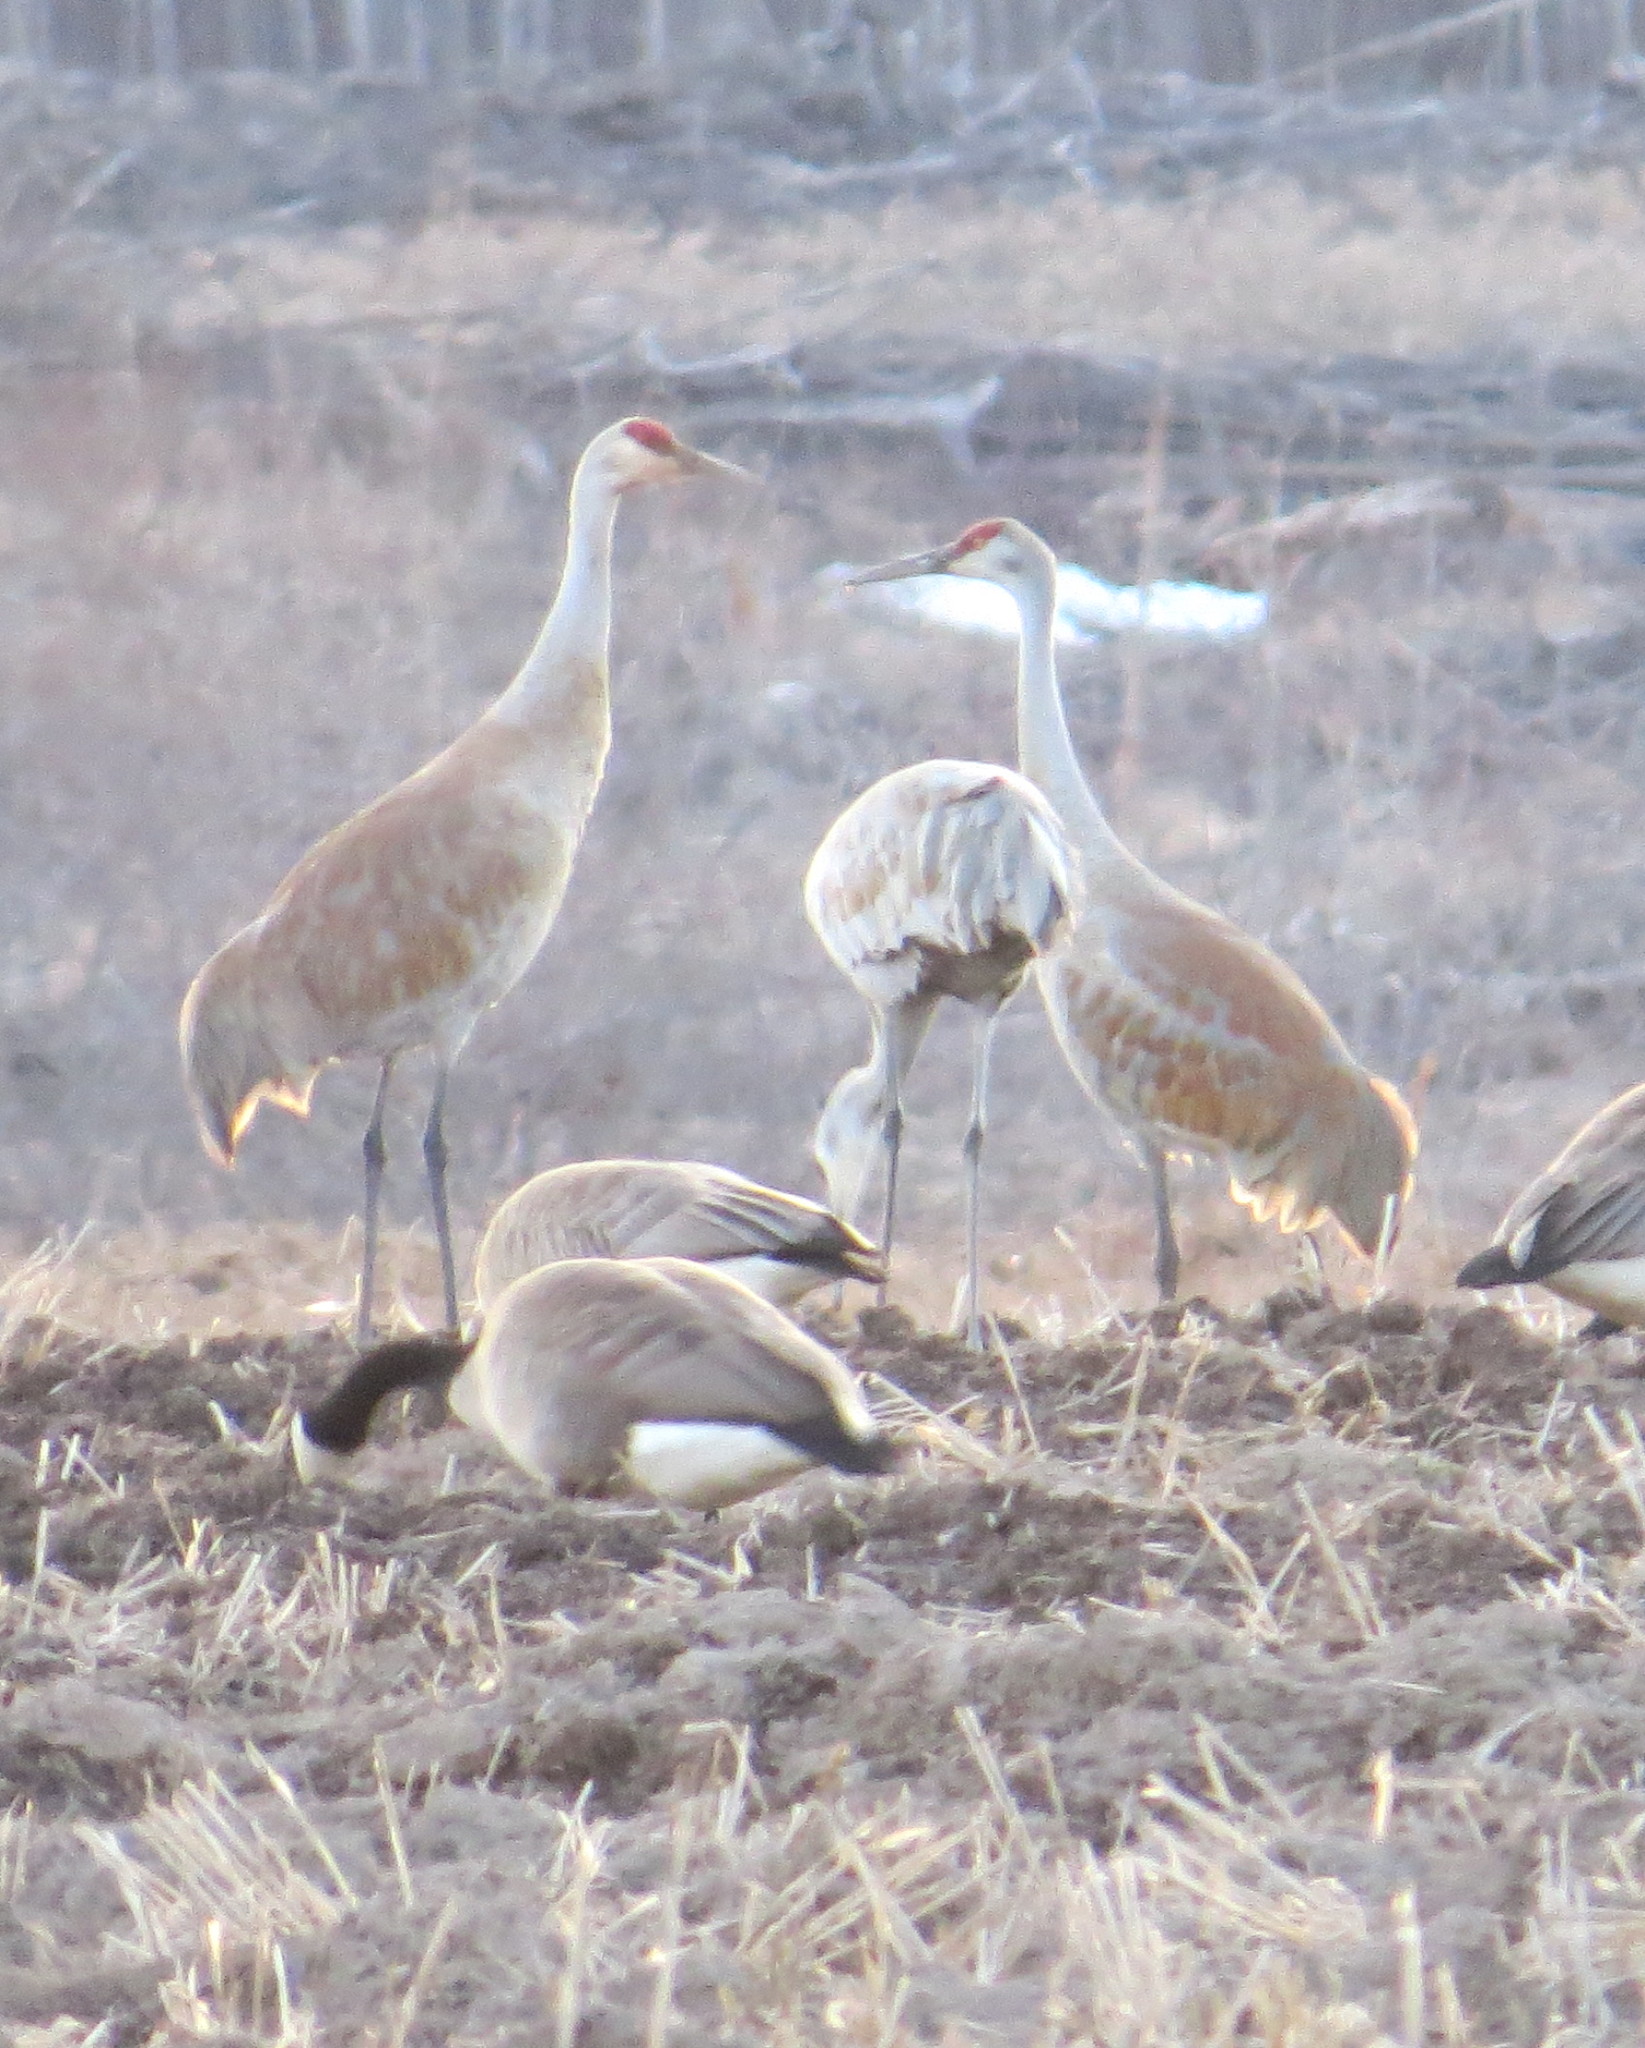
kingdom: Animalia
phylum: Chordata
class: Aves
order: Gruiformes
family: Gruidae
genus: Grus
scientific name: Grus canadensis
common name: Sandhill crane
